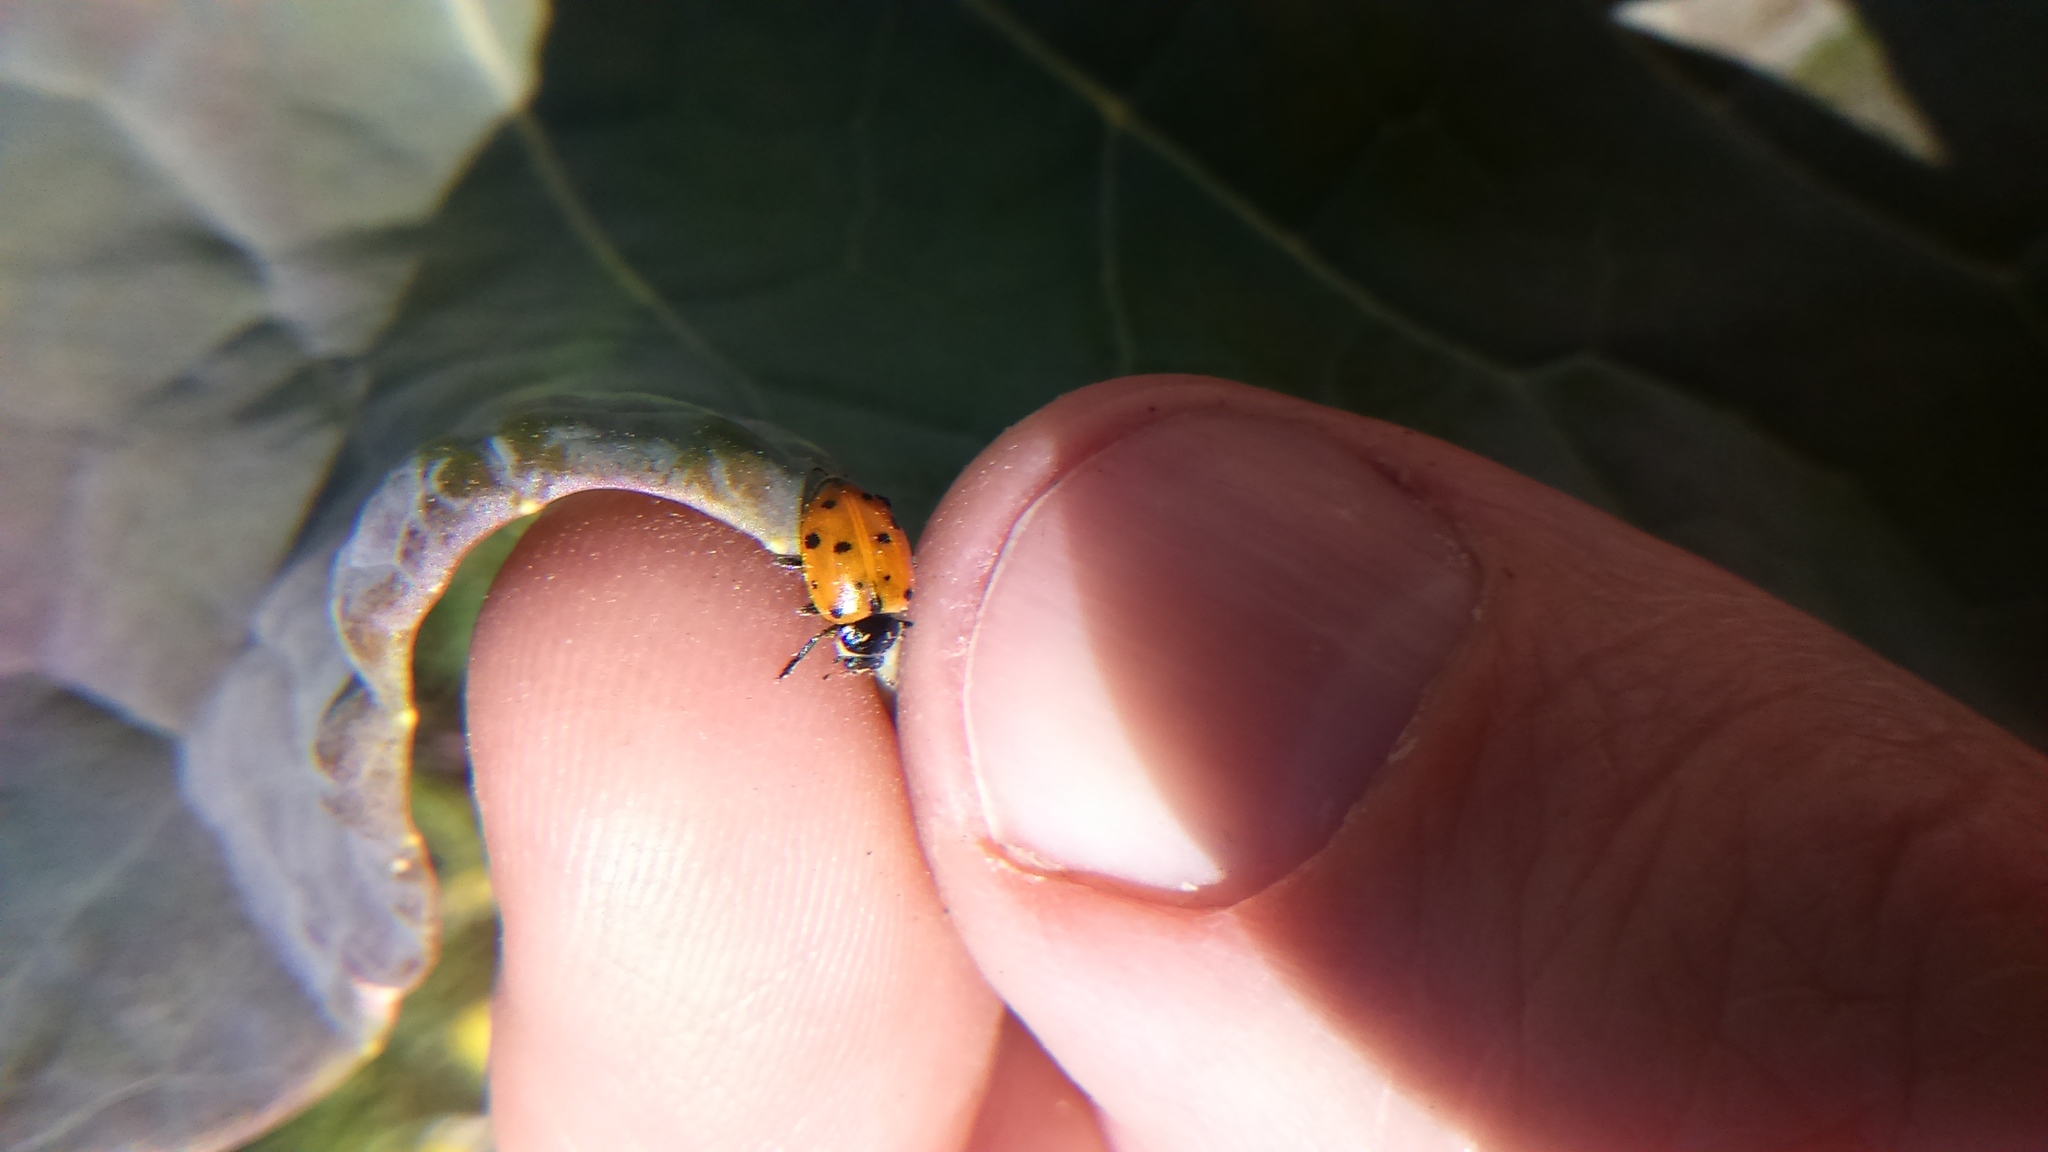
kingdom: Animalia
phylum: Arthropoda
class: Insecta
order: Coleoptera
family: Coccinellidae
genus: Hippodamia
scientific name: Hippodamia convergens
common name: Convergent lady beetle
